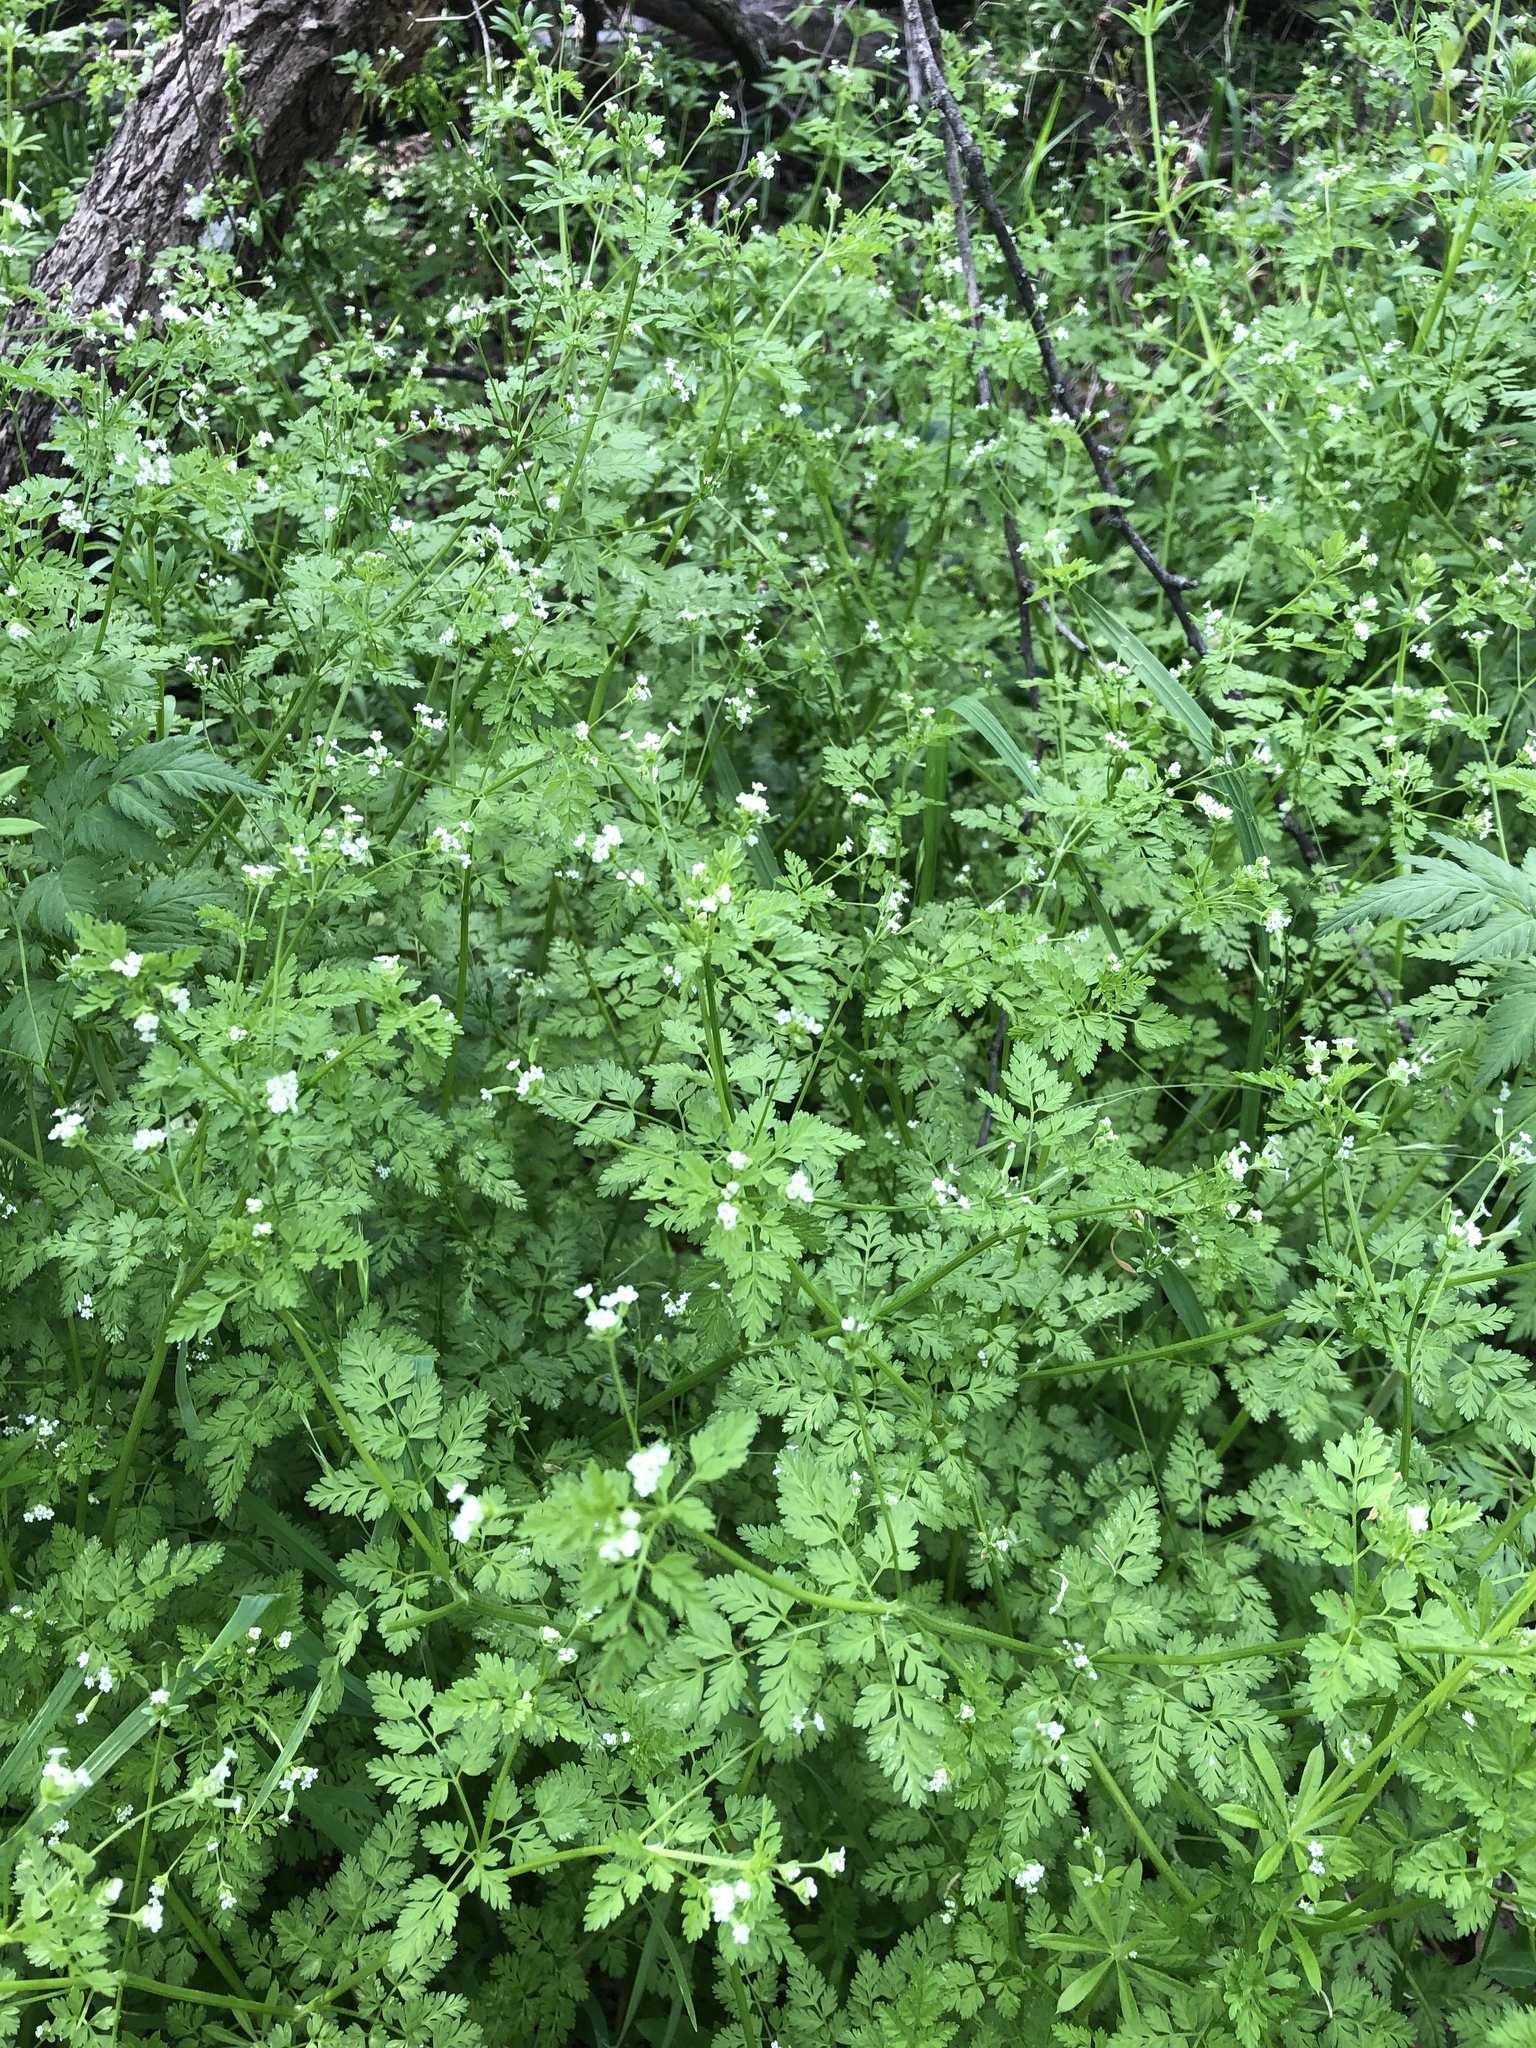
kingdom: Plantae
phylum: Tracheophyta
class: Magnoliopsida
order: Apiales
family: Apiaceae
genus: Chaerophyllum
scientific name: Chaerophyllum tainturieri
